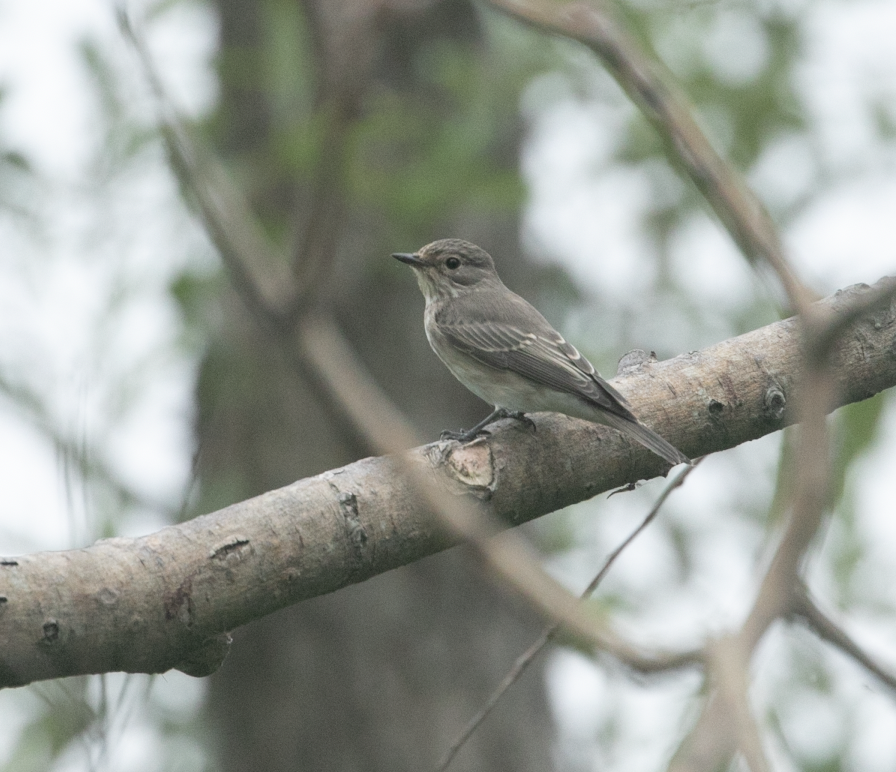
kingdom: Animalia
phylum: Chordata
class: Aves
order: Passeriformes
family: Muscicapidae
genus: Muscicapa
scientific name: Muscicapa striata
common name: Spotted flycatcher
